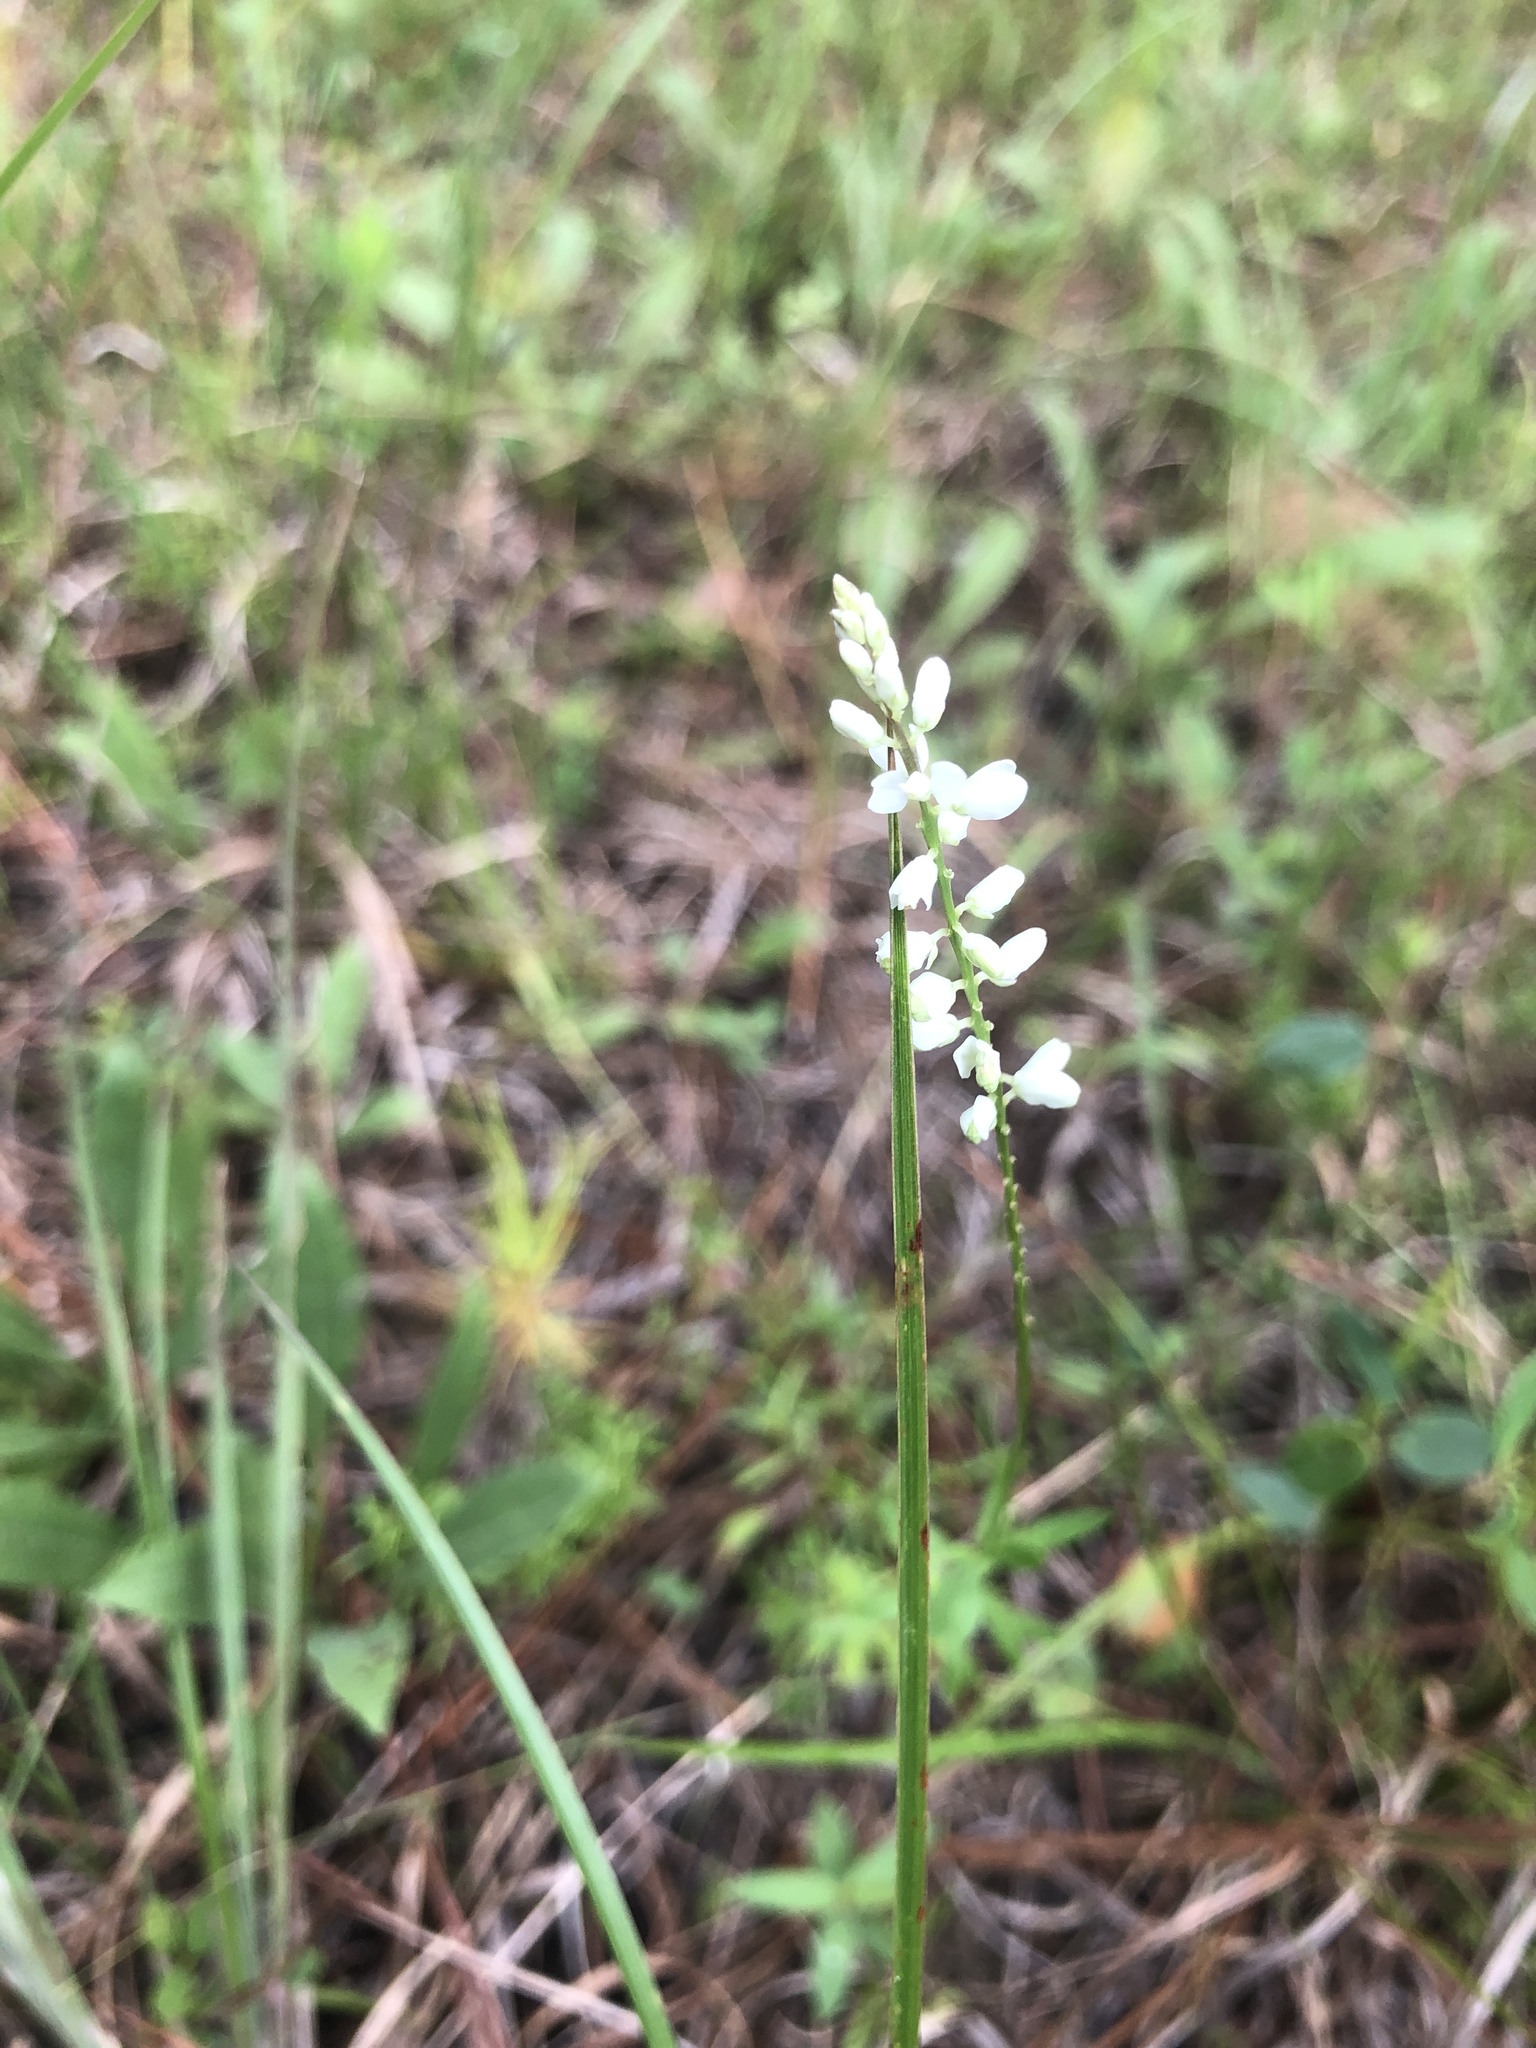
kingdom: Plantae
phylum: Tracheophyta
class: Magnoliopsida
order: Fabales
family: Polygalaceae
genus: Polygala
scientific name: Polygala boykinii
